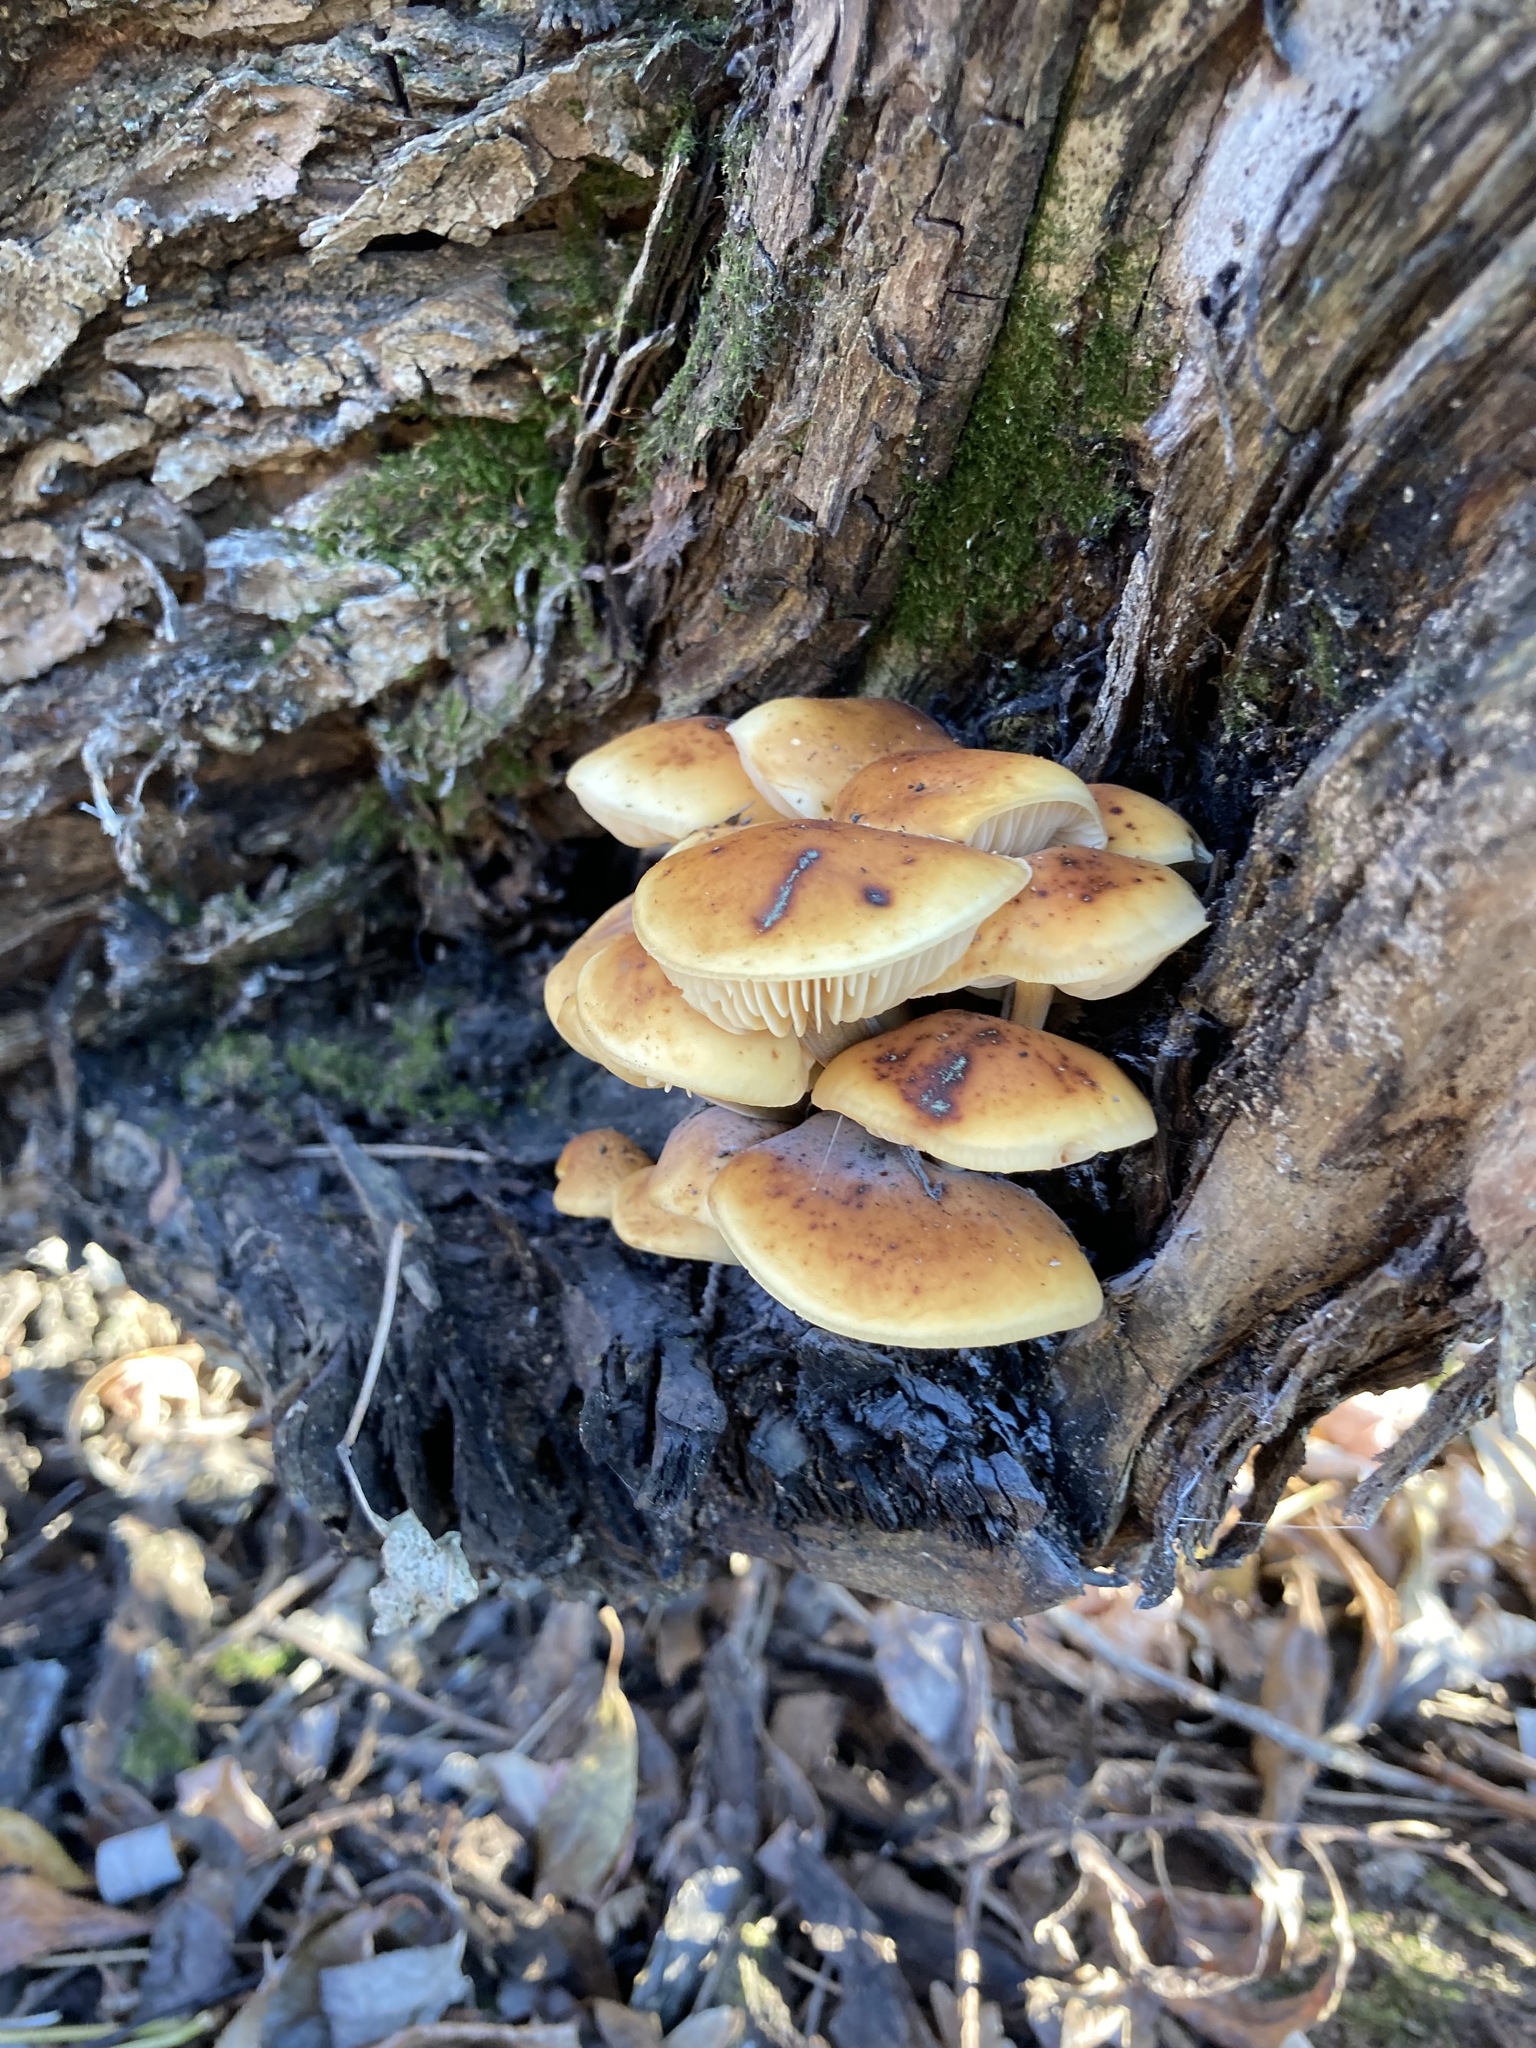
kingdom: Fungi
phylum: Basidiomycota
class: Agaricomycetes
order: Agaricales
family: Physalacriaceae
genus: Flammulina
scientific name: Flammulina
